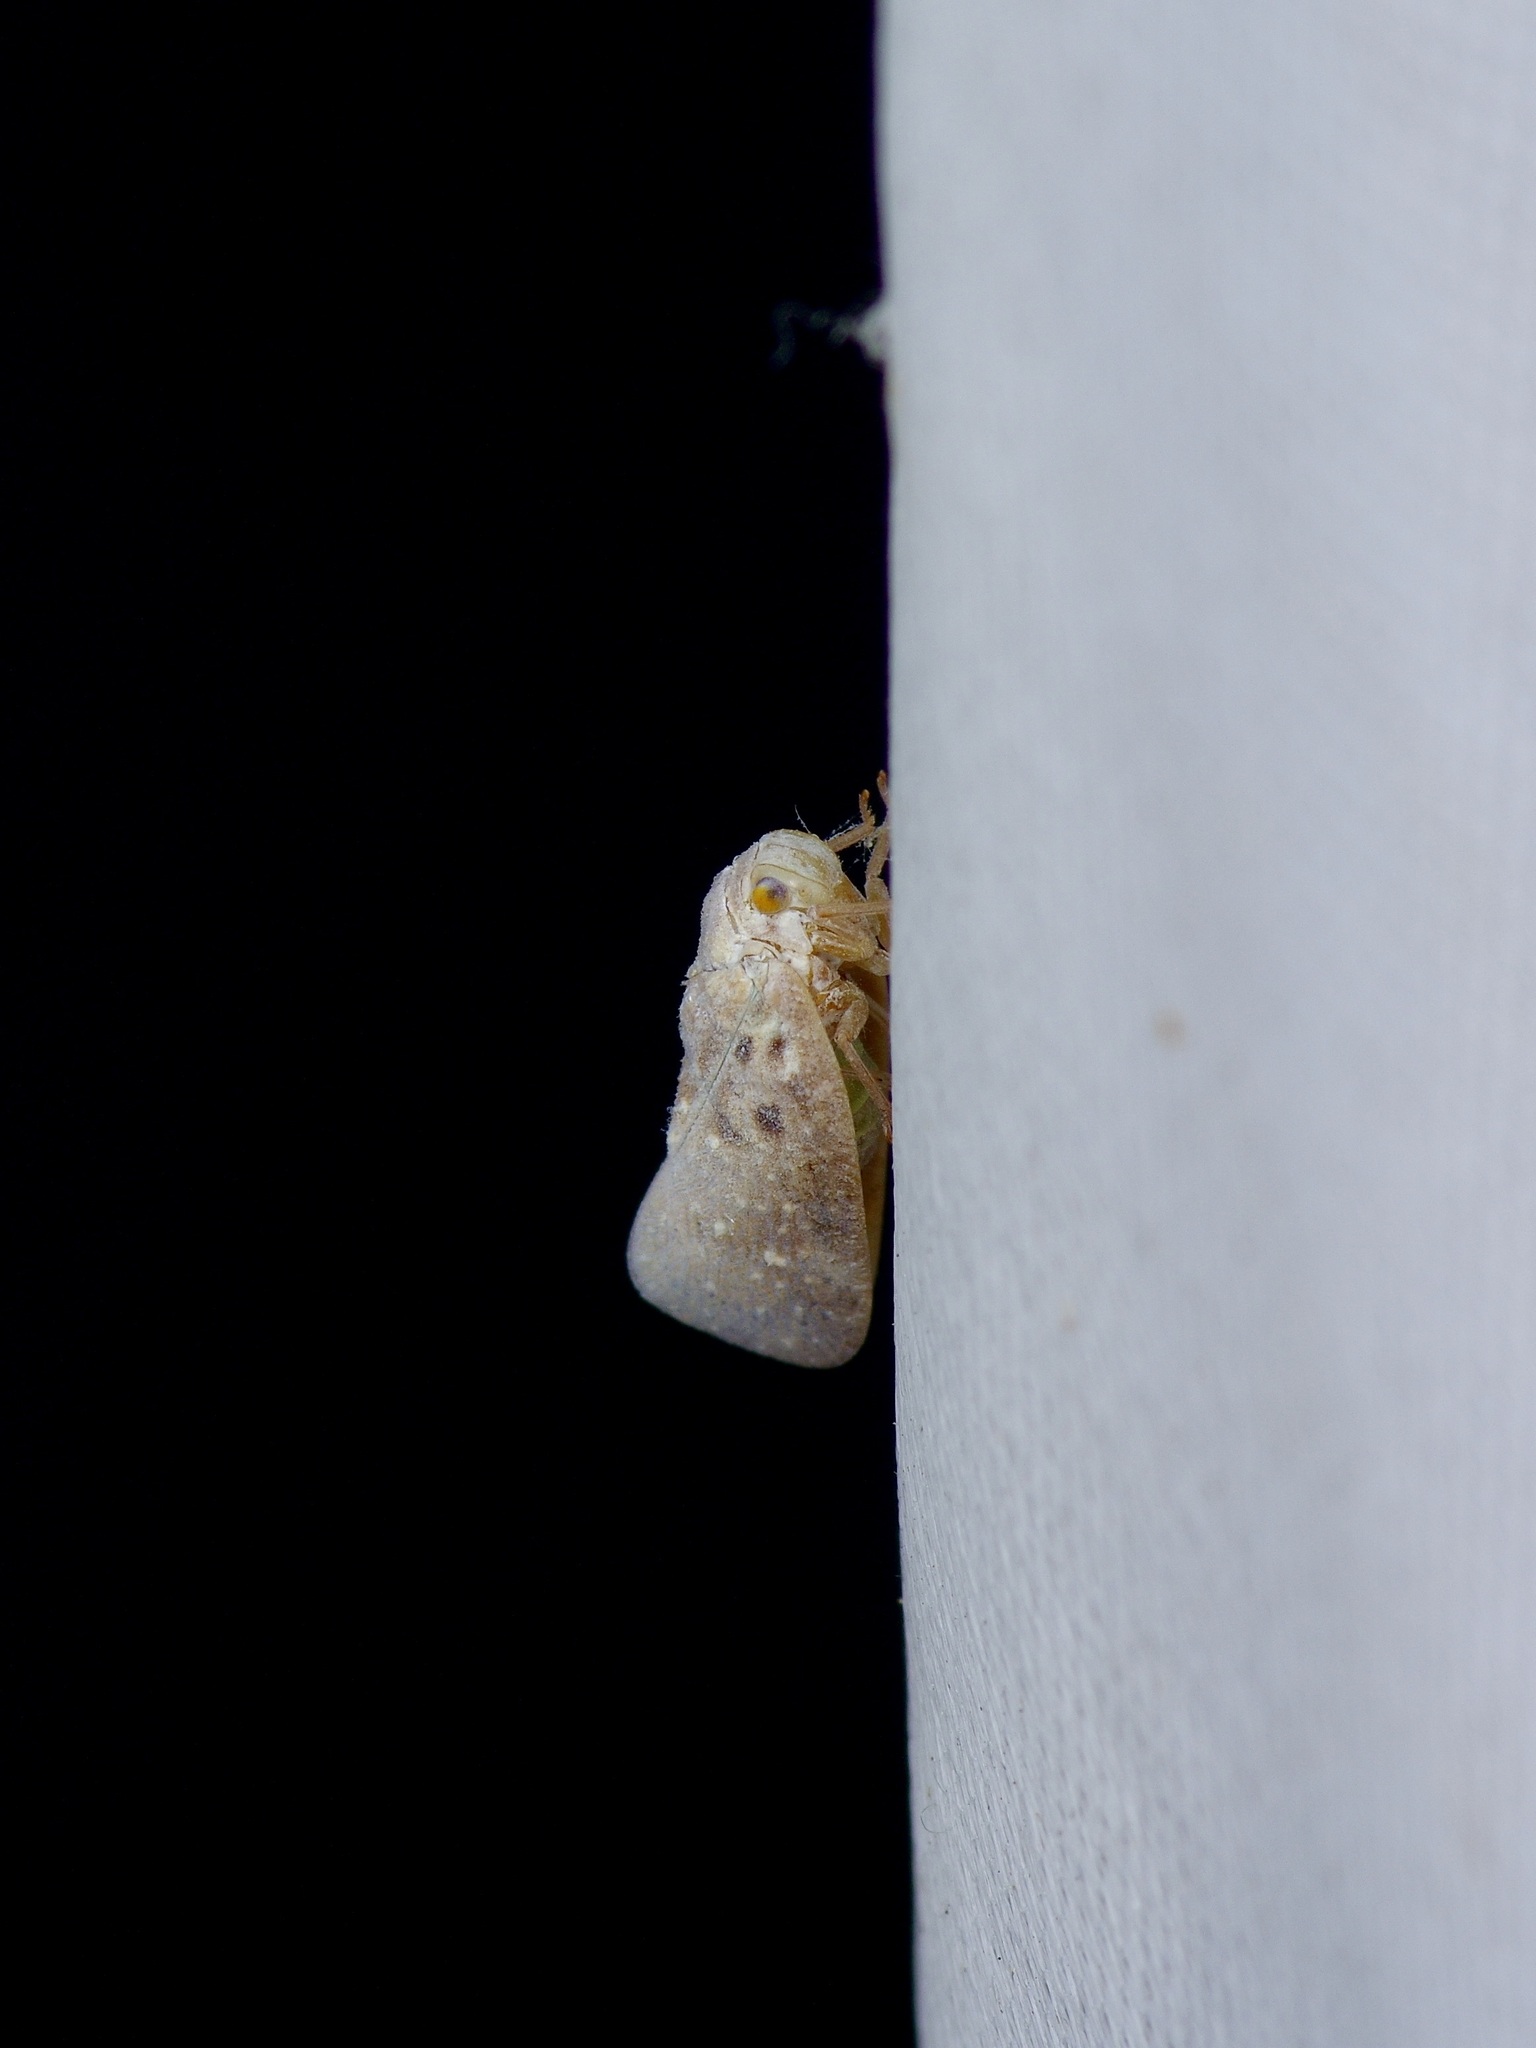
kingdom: Animalia
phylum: Arthropoda
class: Insecta
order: Hemiptera
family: Flatidae
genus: Metcalfa
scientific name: Metcalfa pruinosa
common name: Citrus flatid planthopper
